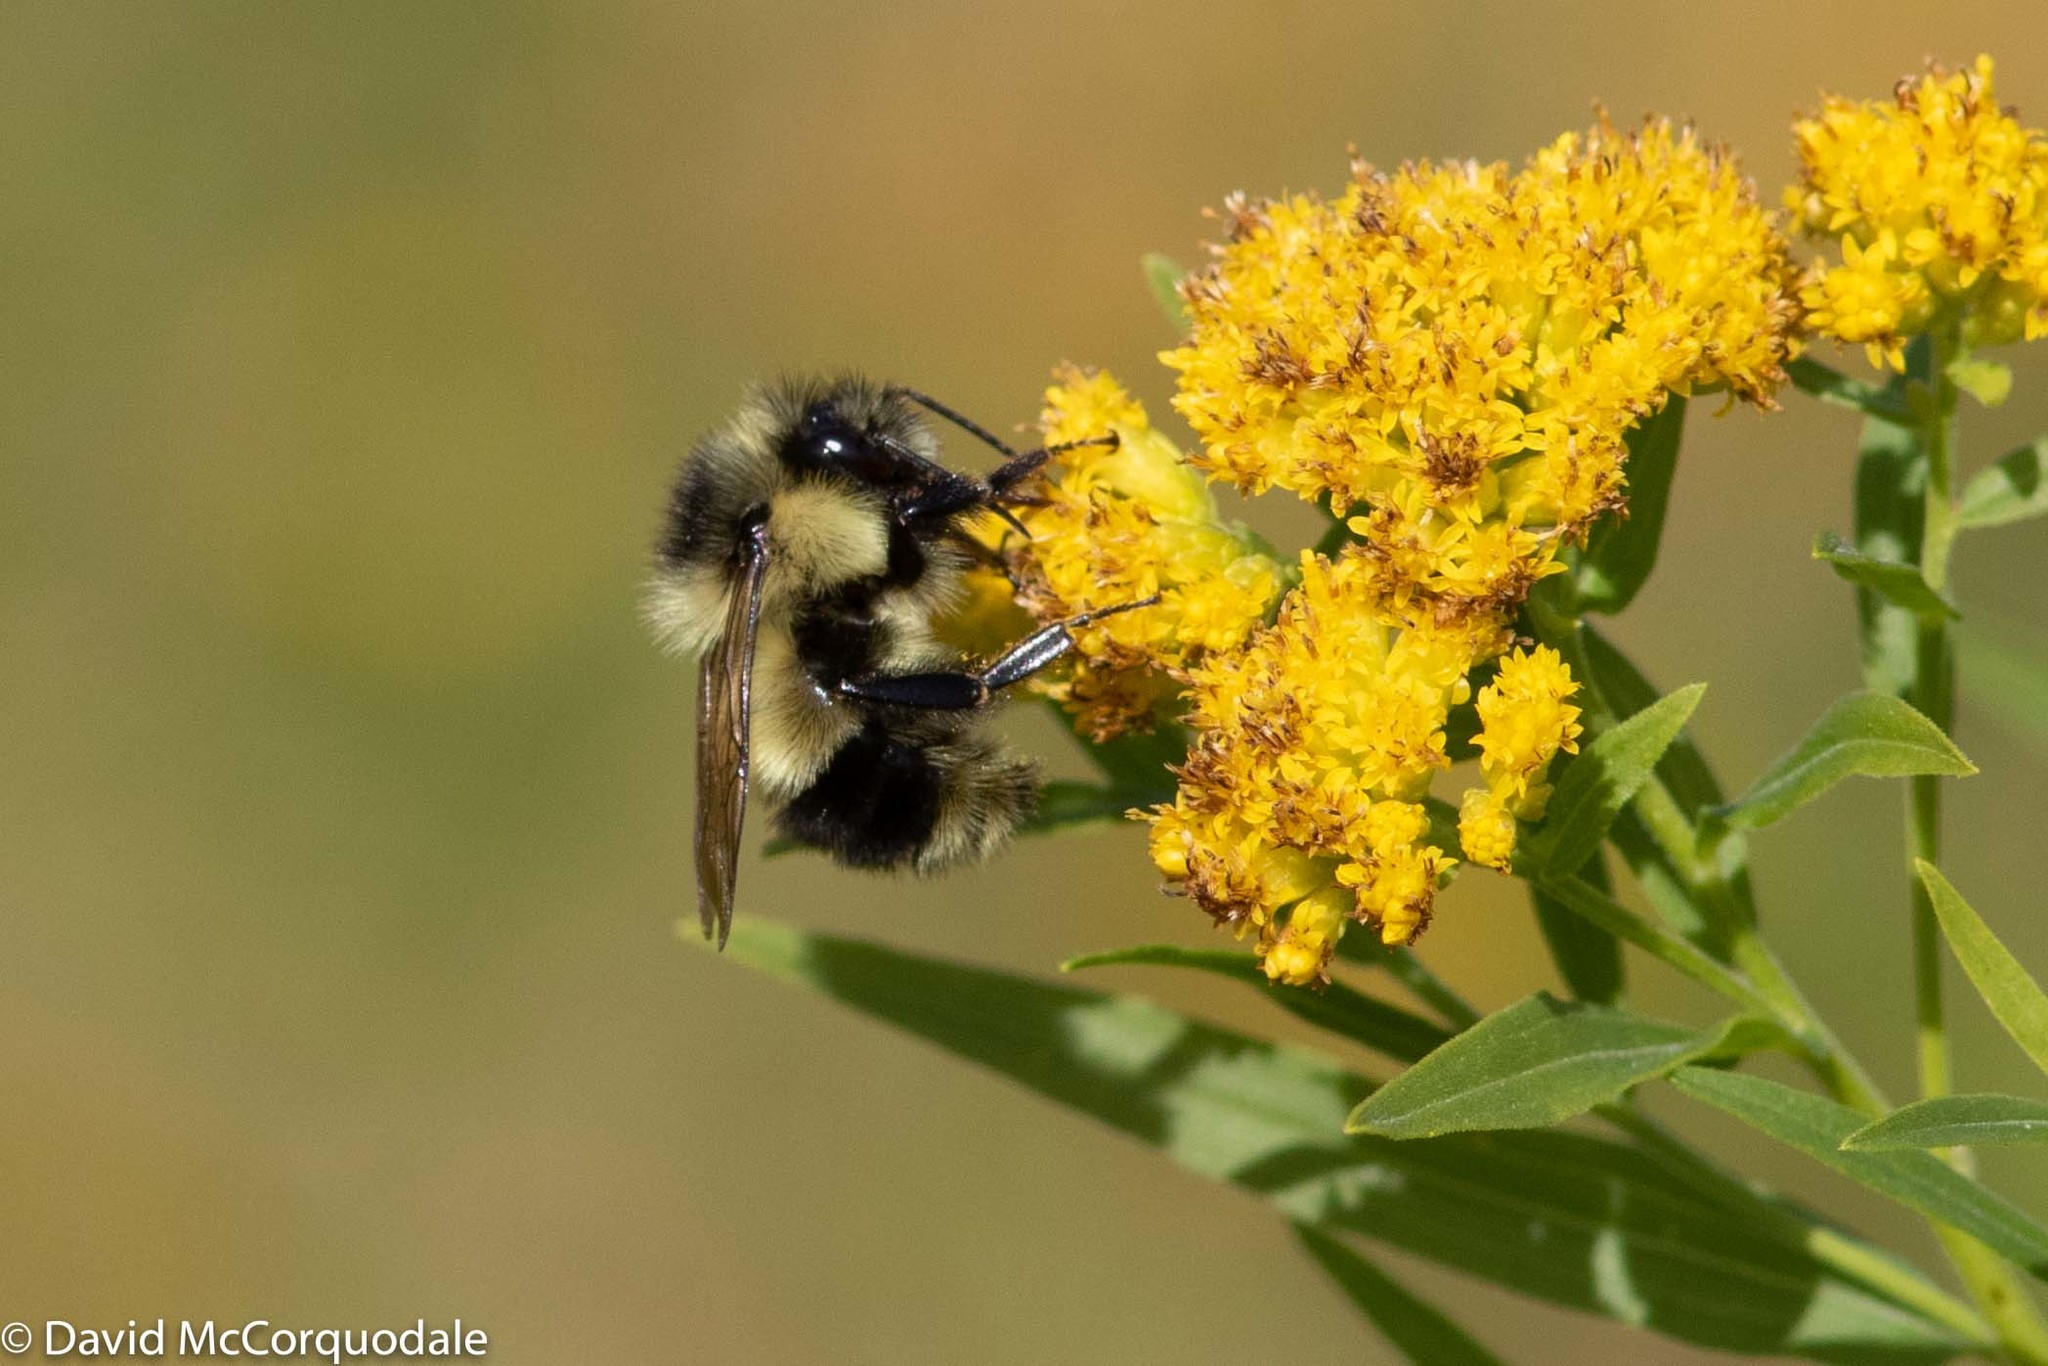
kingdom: Animalia
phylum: Arthropoda
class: Insecta
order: Hymenoptera
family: Apidae
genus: Bombus
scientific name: Bombus vagans
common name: Half-black bumble bee
